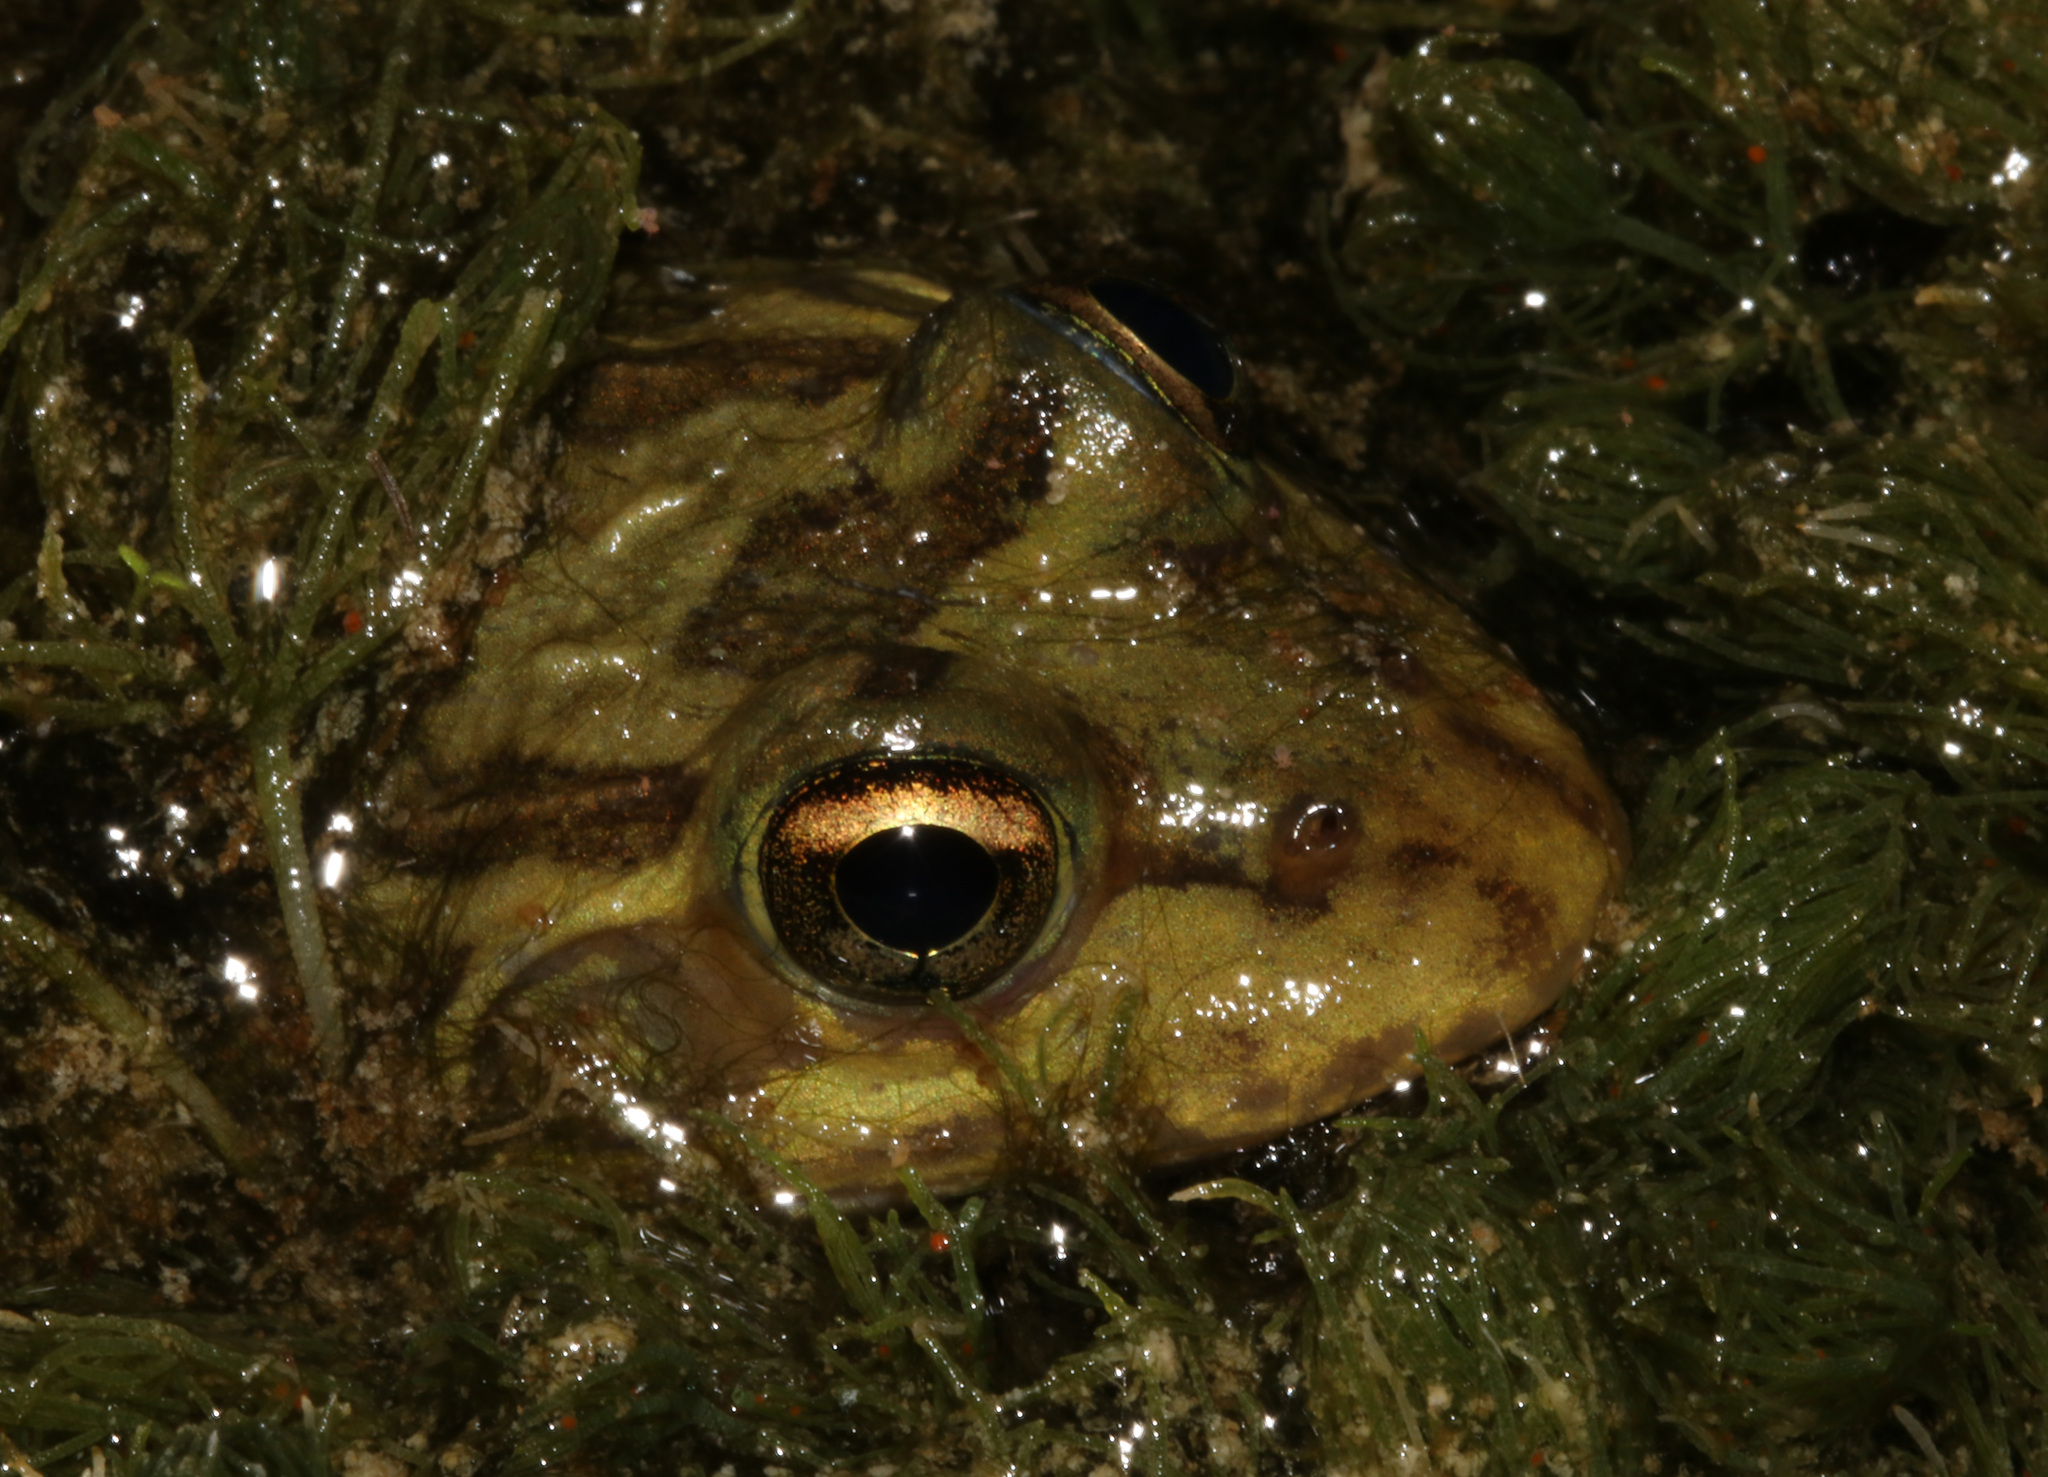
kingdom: Animalia
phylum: Chordata
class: Amphibia
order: Anura
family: Pyxicephalidae
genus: Amietia
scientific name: Amietia poyntoni
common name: Poynton's river frog
